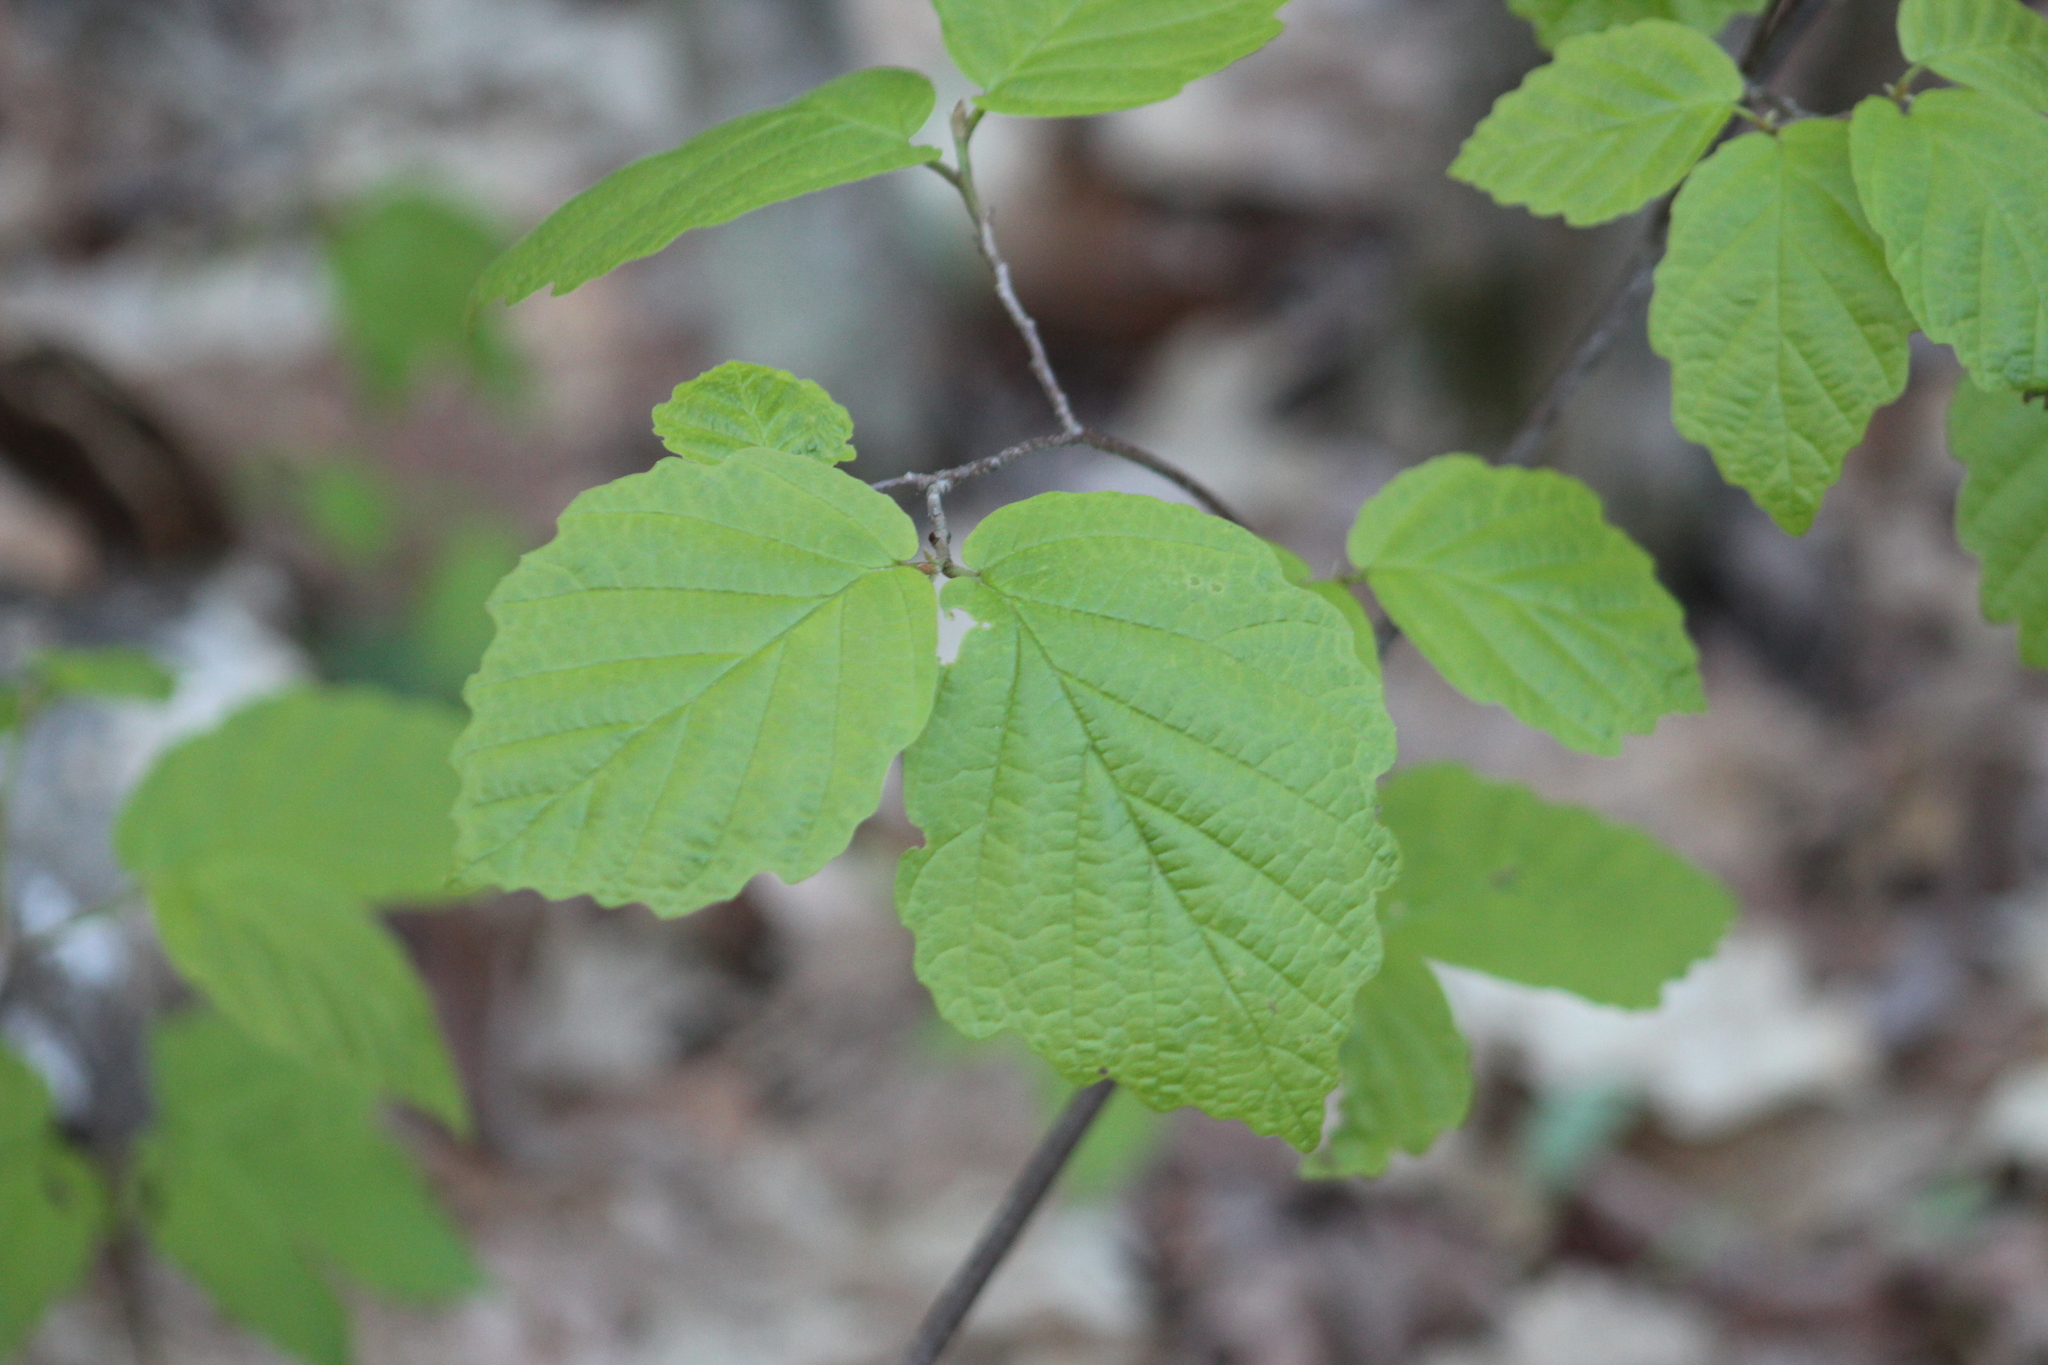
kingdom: Plantae
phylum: Tracheophyta
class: Magnoliopsida
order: Saxifragales
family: Hamamelidaceae
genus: Hamamelis
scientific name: Hamamelis virginiana
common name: Witch-hazel
